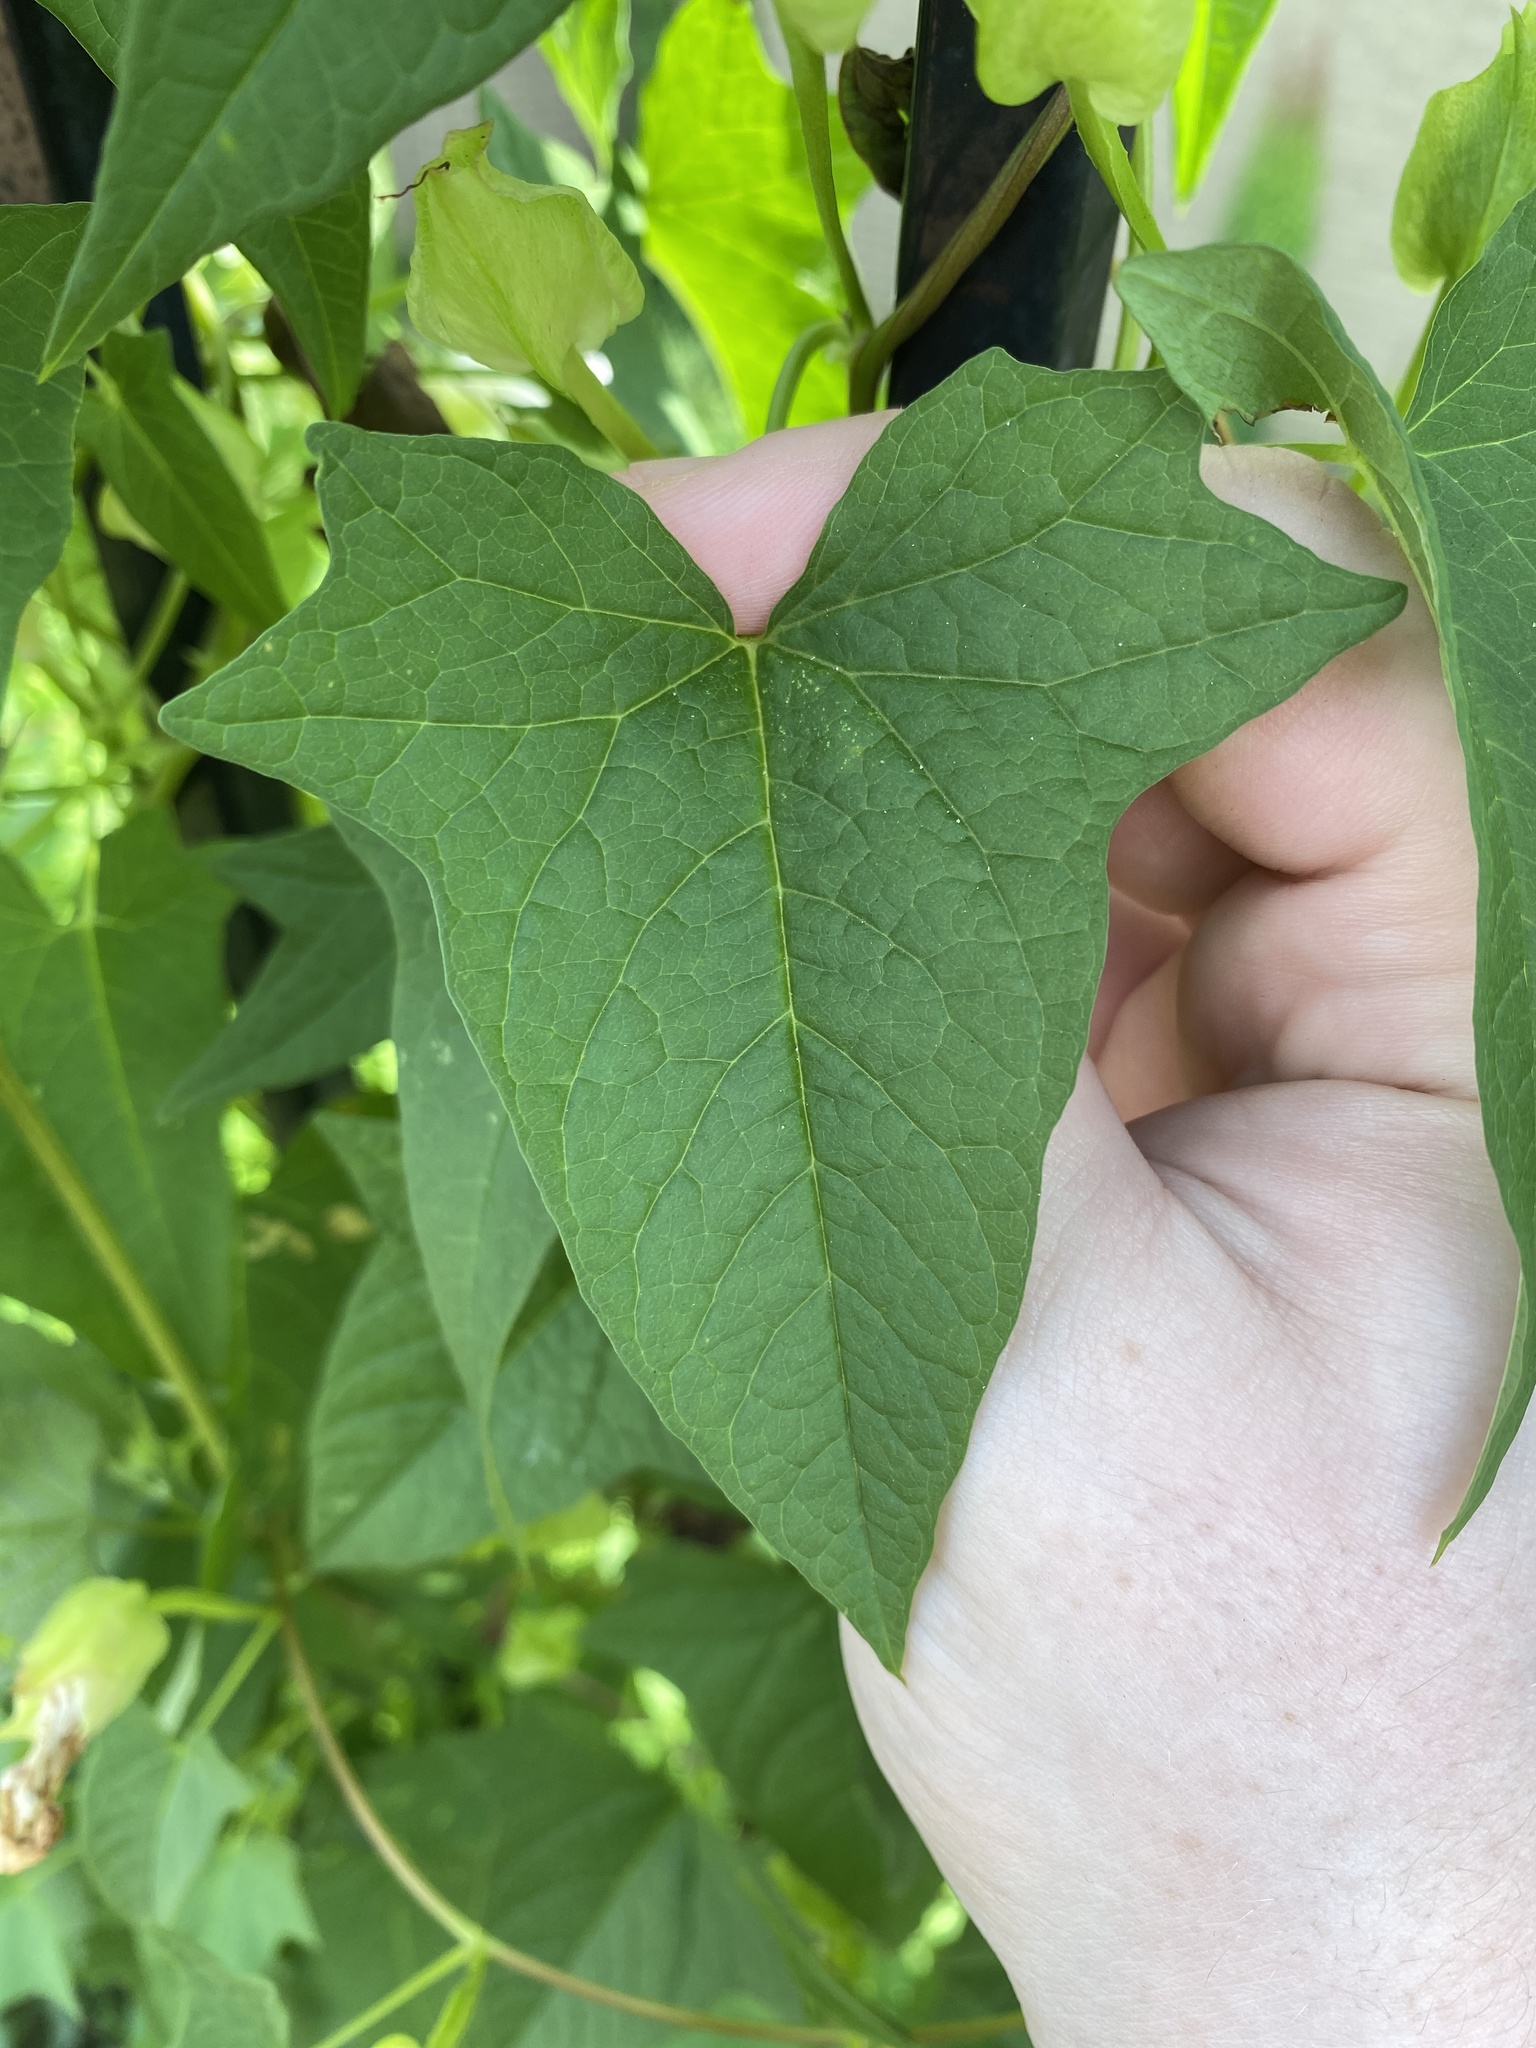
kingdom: Plantae
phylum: Tracheophyta
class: Magnoliopsida
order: Solanales
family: Convolvulaceae
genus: Calystegia
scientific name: Calystegia silvatica
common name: Large bindweed
